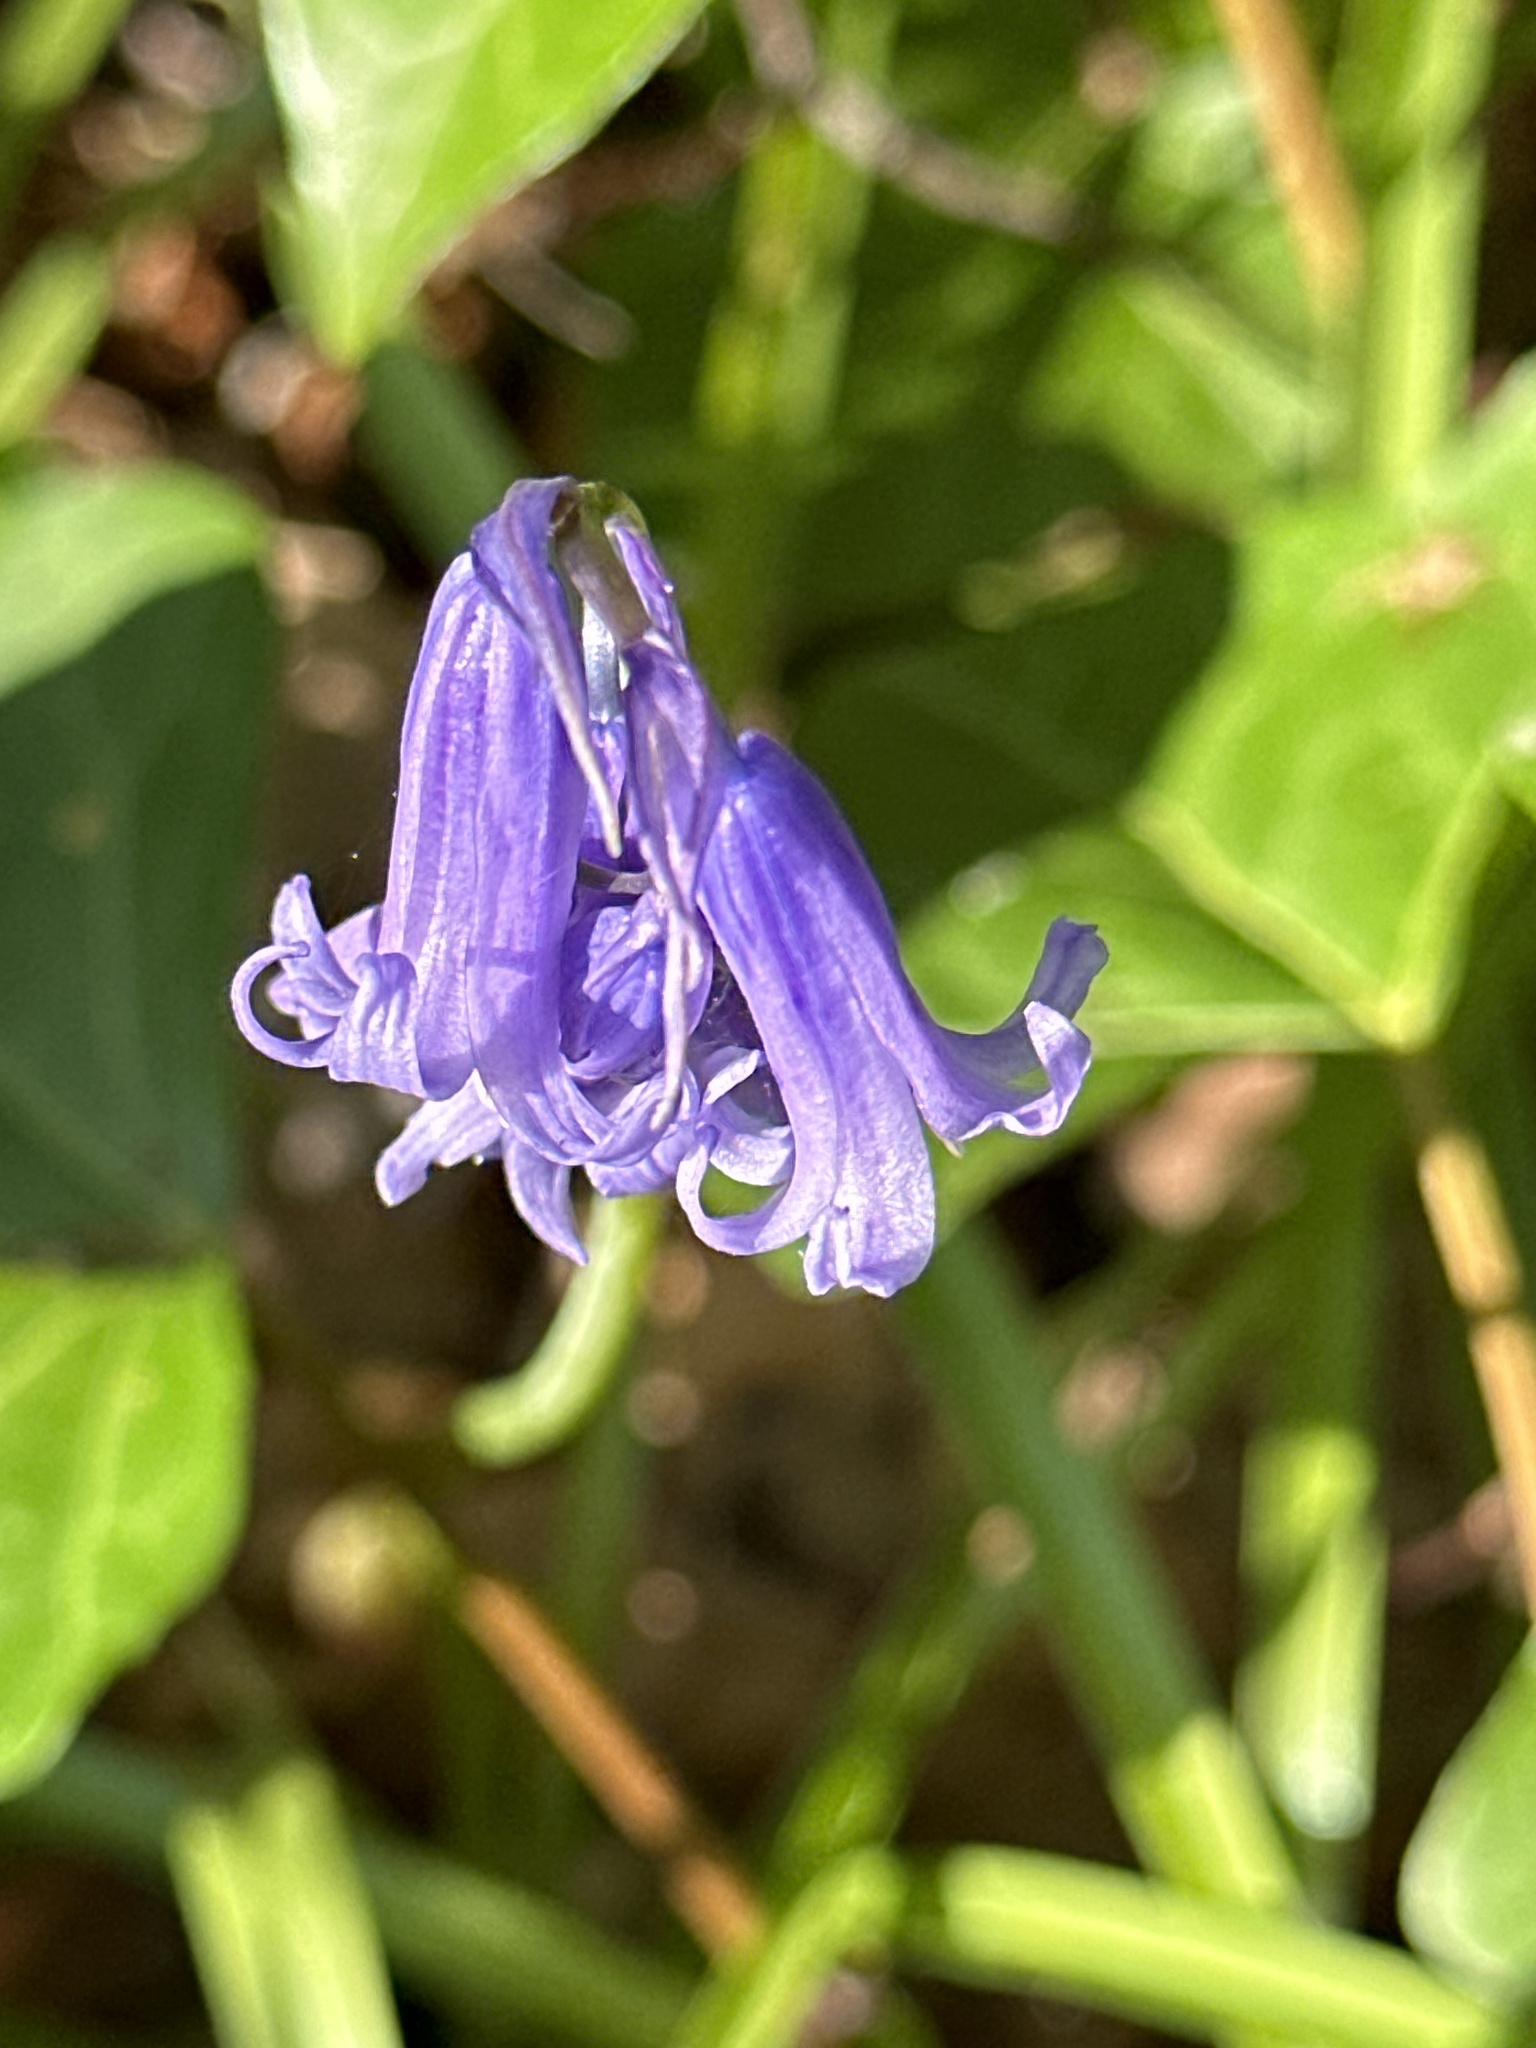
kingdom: Plantae
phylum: Tracheophyta
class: Liliopsida
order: Asparagales
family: Asparagaceae
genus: Hyacinthoides
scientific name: Hyacinthoides non-scripta
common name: Bluebell
